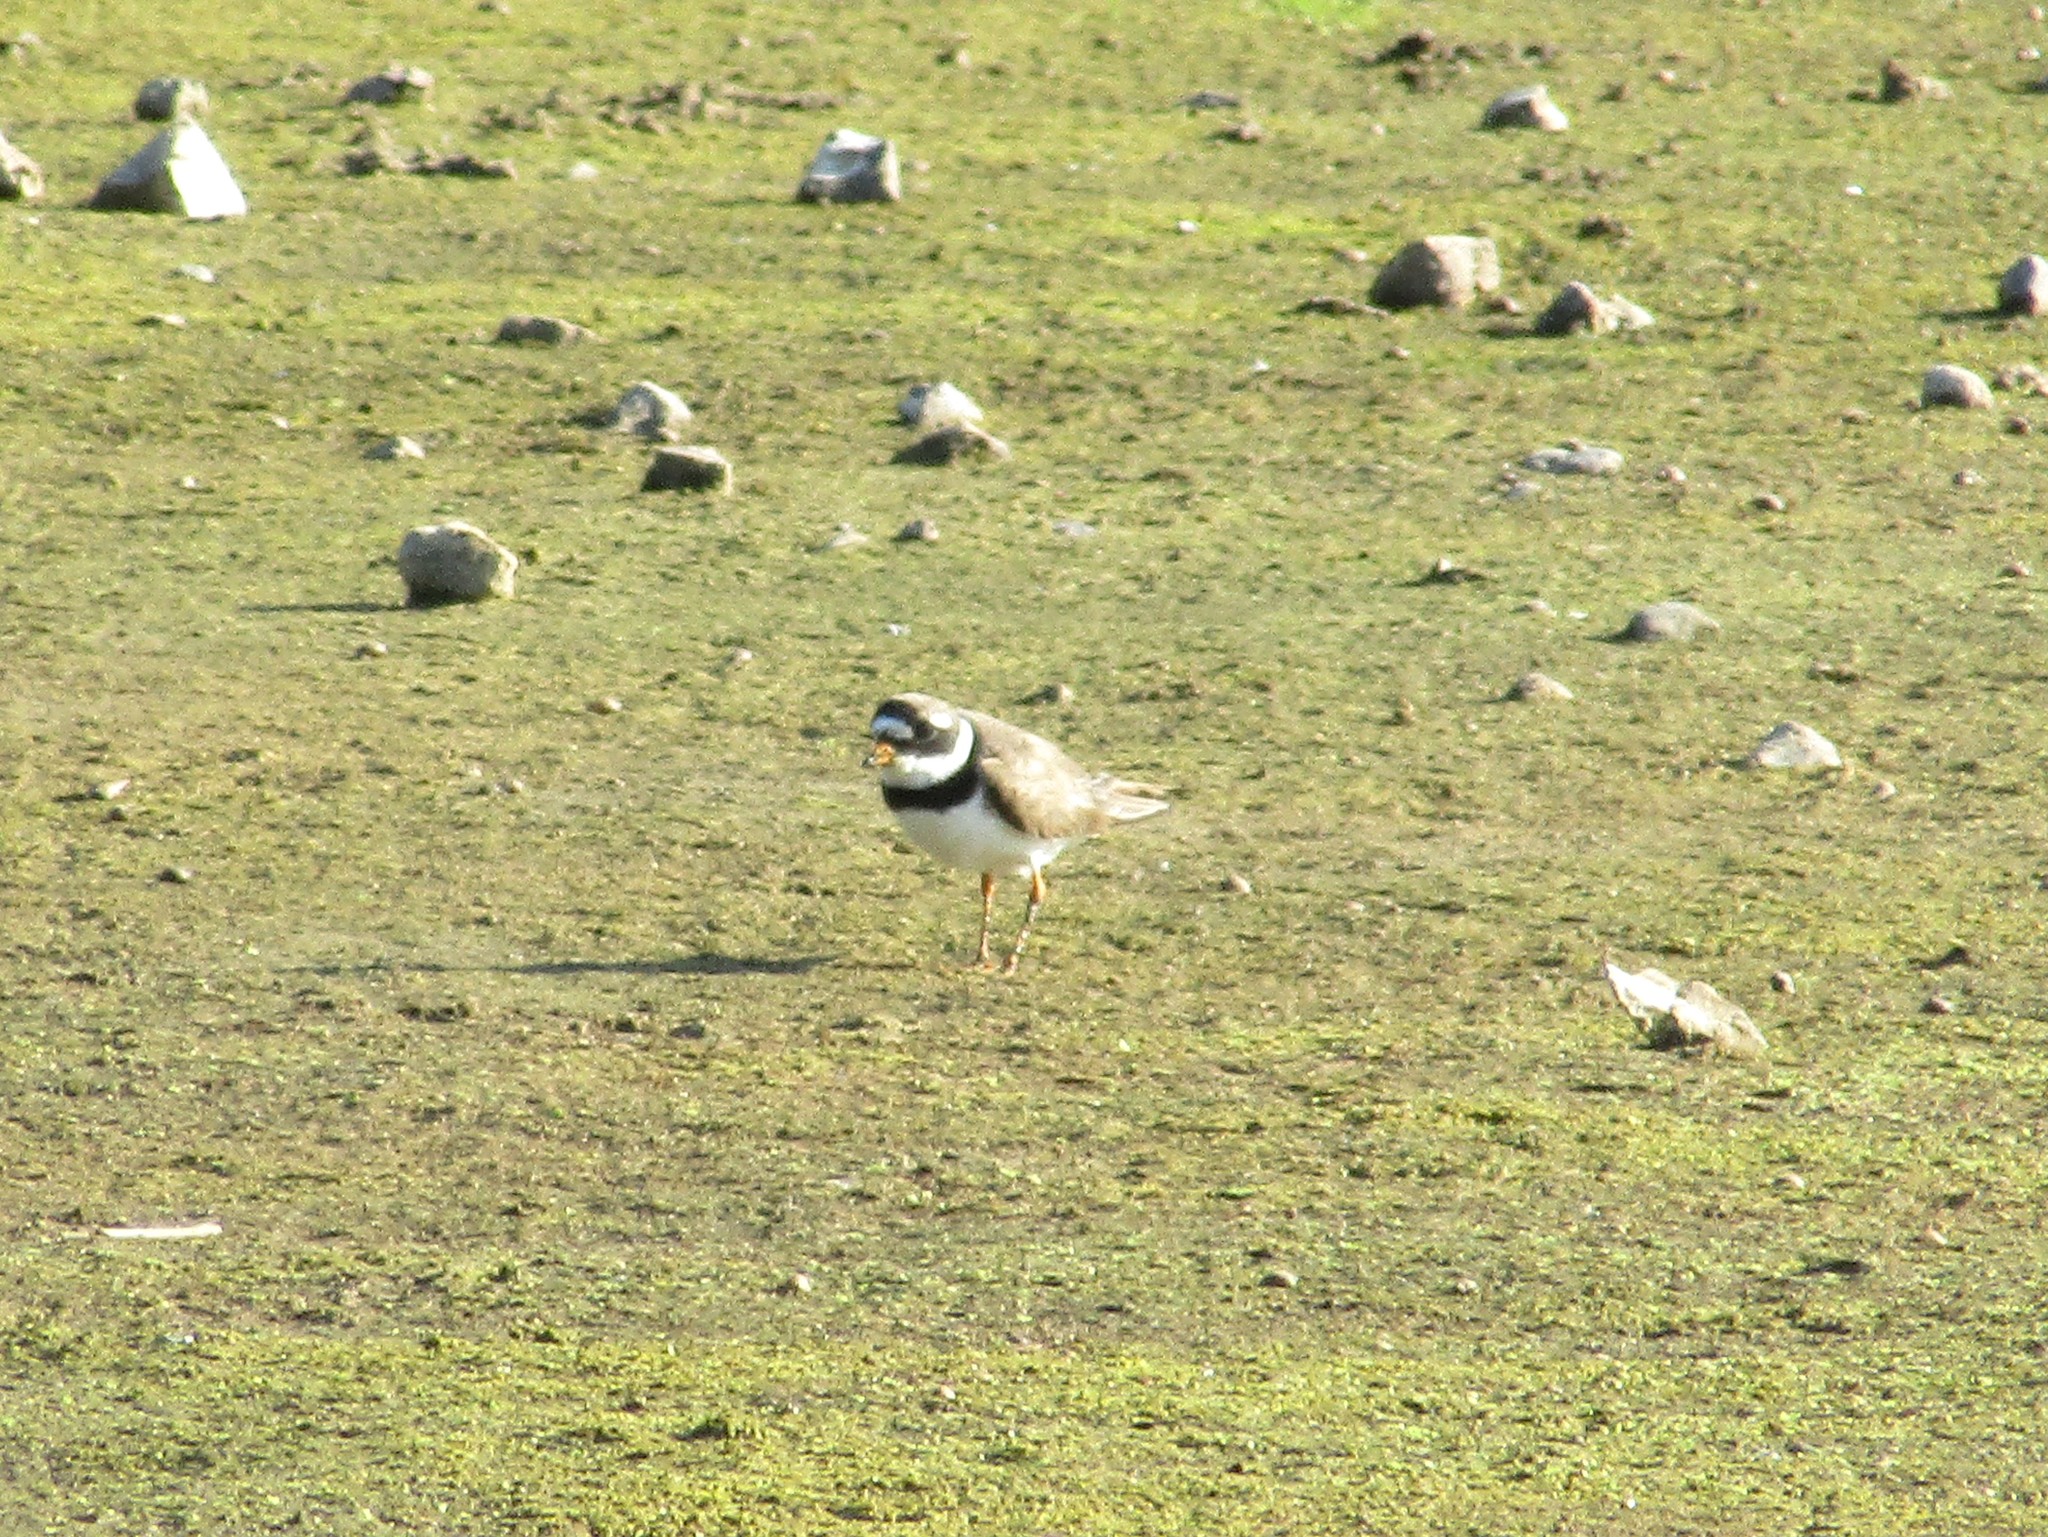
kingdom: Animalia
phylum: Chordata
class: Aves
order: Charadriiformes
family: Charadriidae
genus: Charadrius
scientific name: Charadrius hiaticula
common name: Common ringed plover
